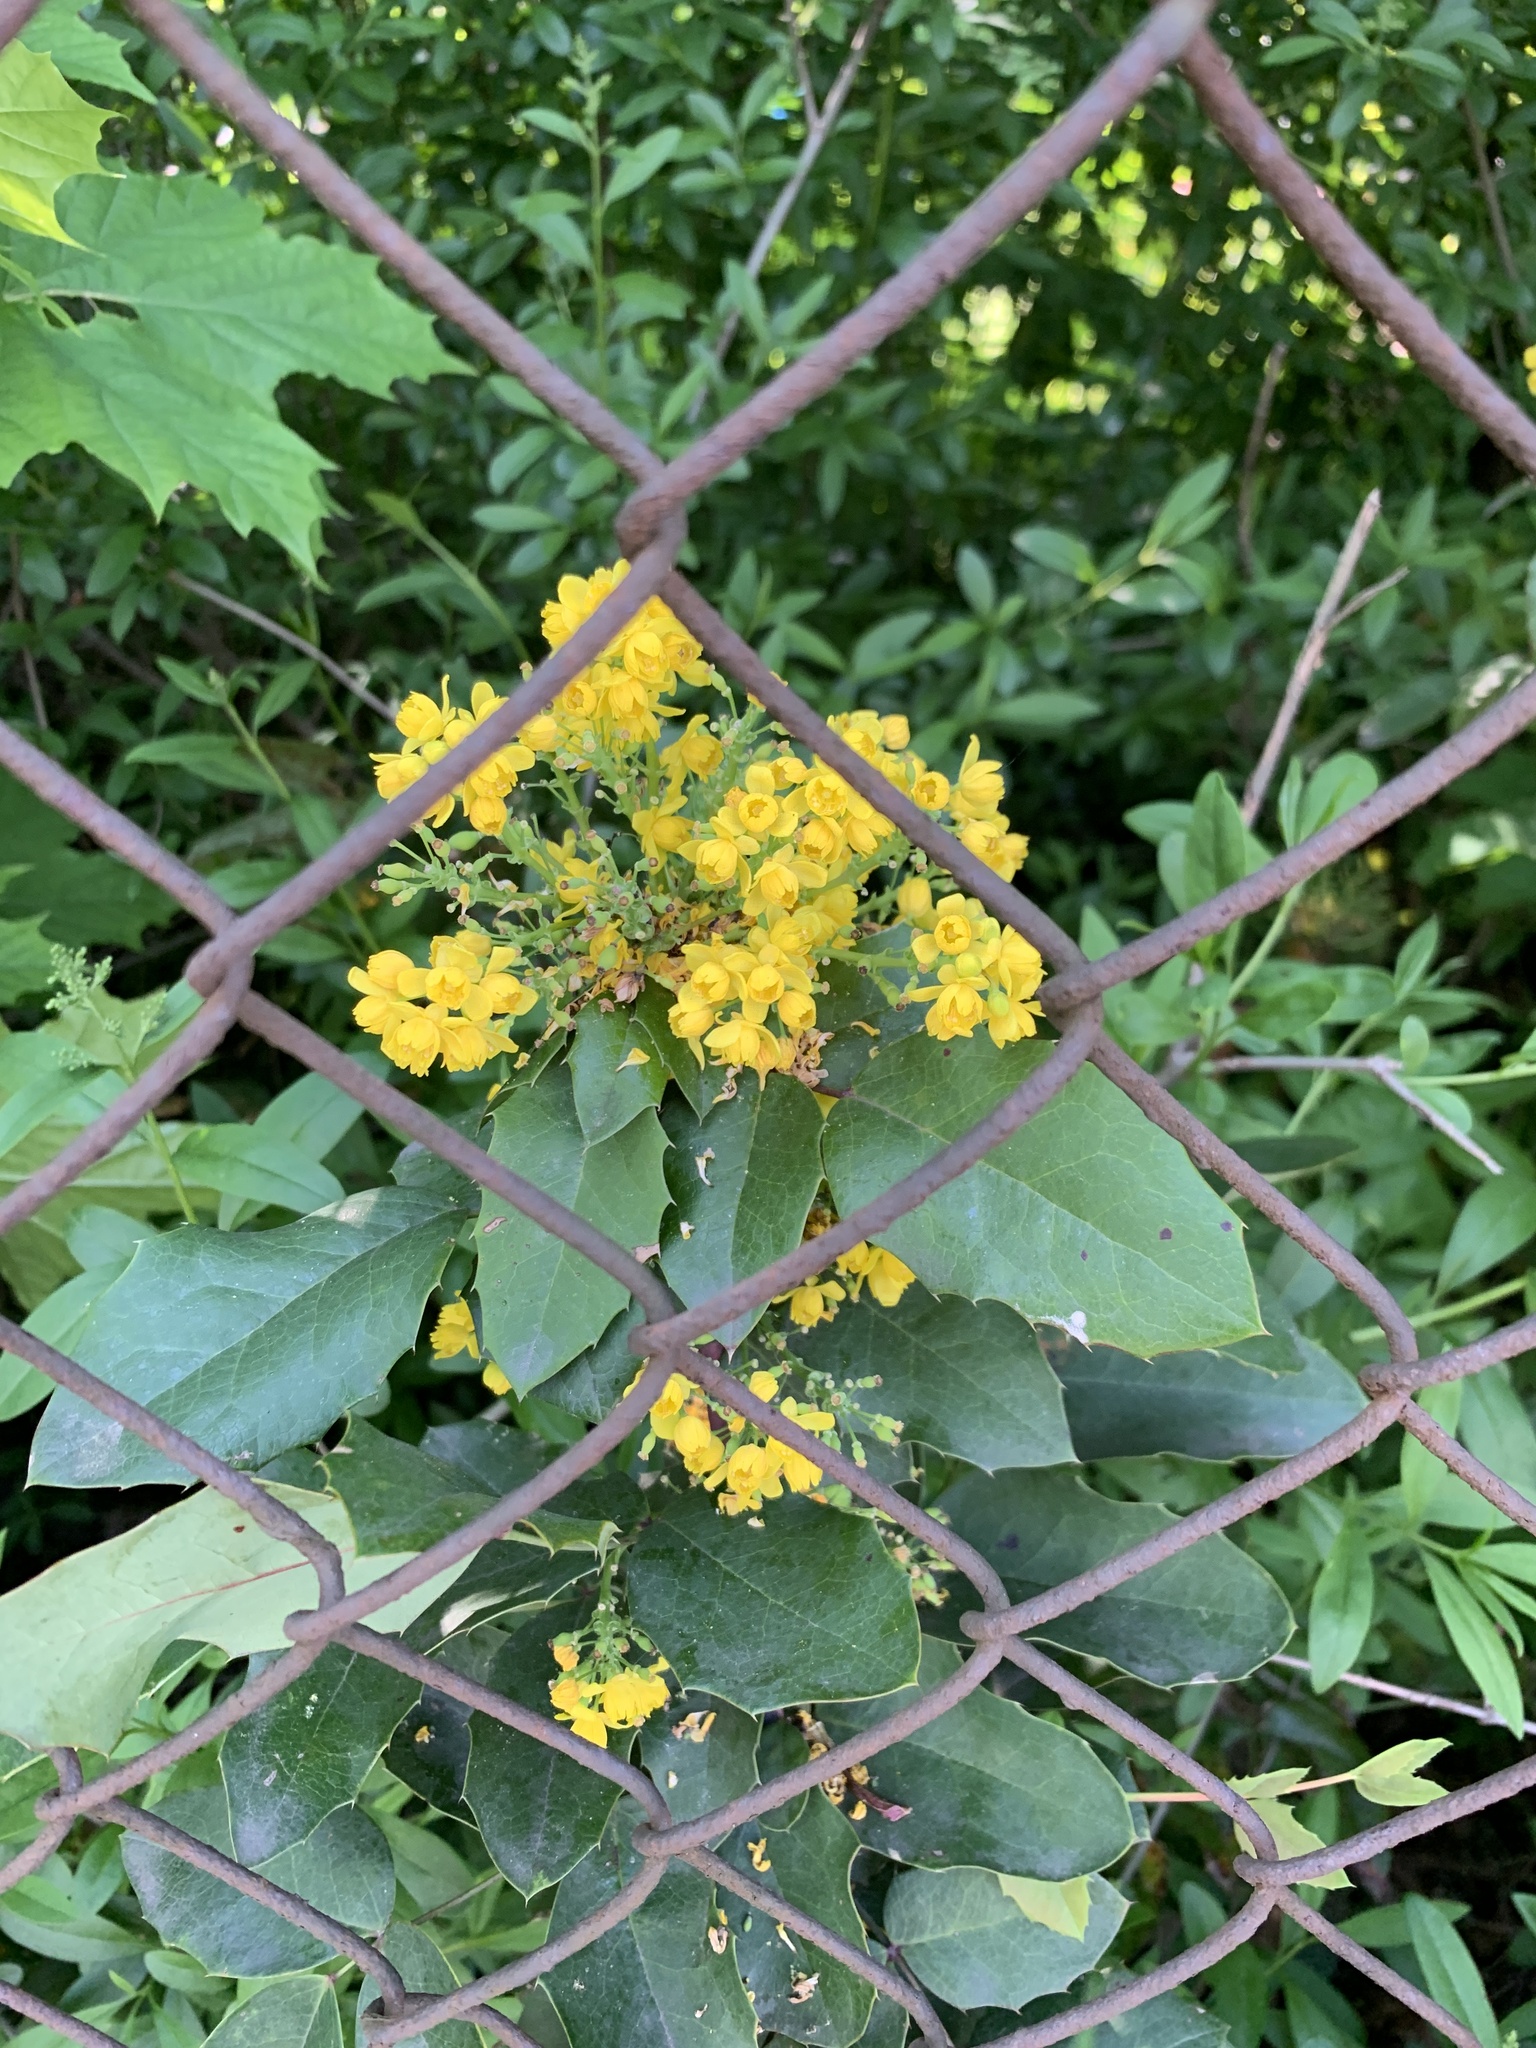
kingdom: Plantae
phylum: Tracheophyta
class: Magnoliopsida
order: Ranunculales
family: Berberidaceae
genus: Mahonia
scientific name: Mahonia aquifolium
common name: Oregon-grape
